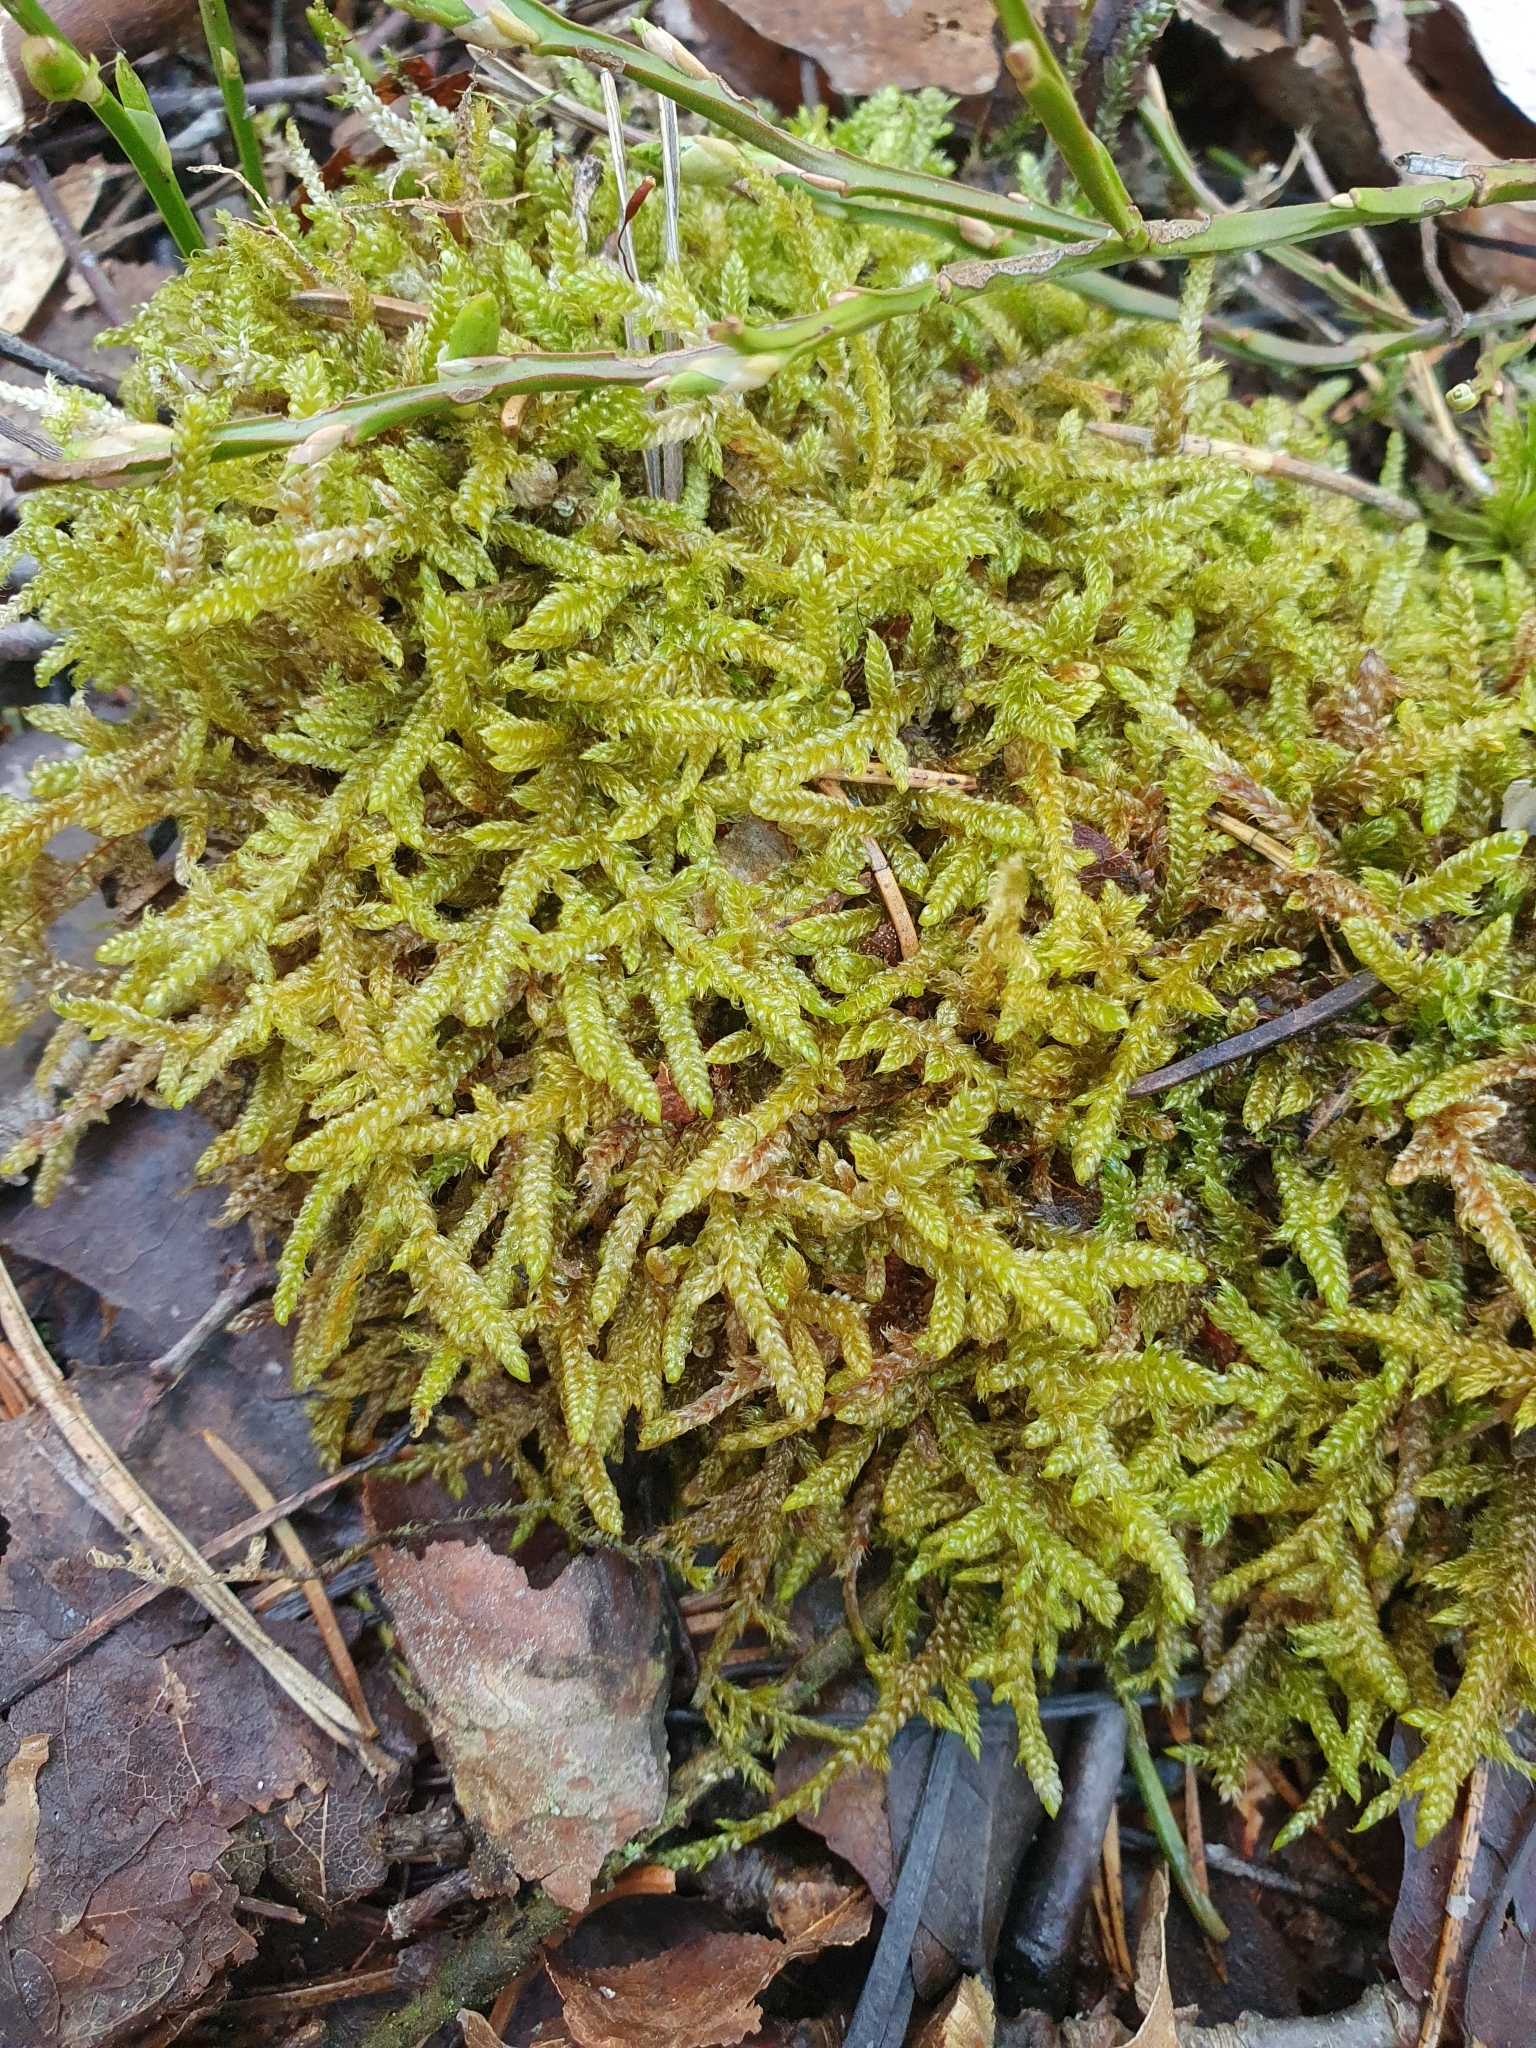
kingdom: Plantae
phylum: Bryophyta
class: Bryopsida
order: Hypnales
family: Hypnaceae
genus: Hypnum
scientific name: Hypnum cupressiforme
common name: Cypress-leaved plait-moss
